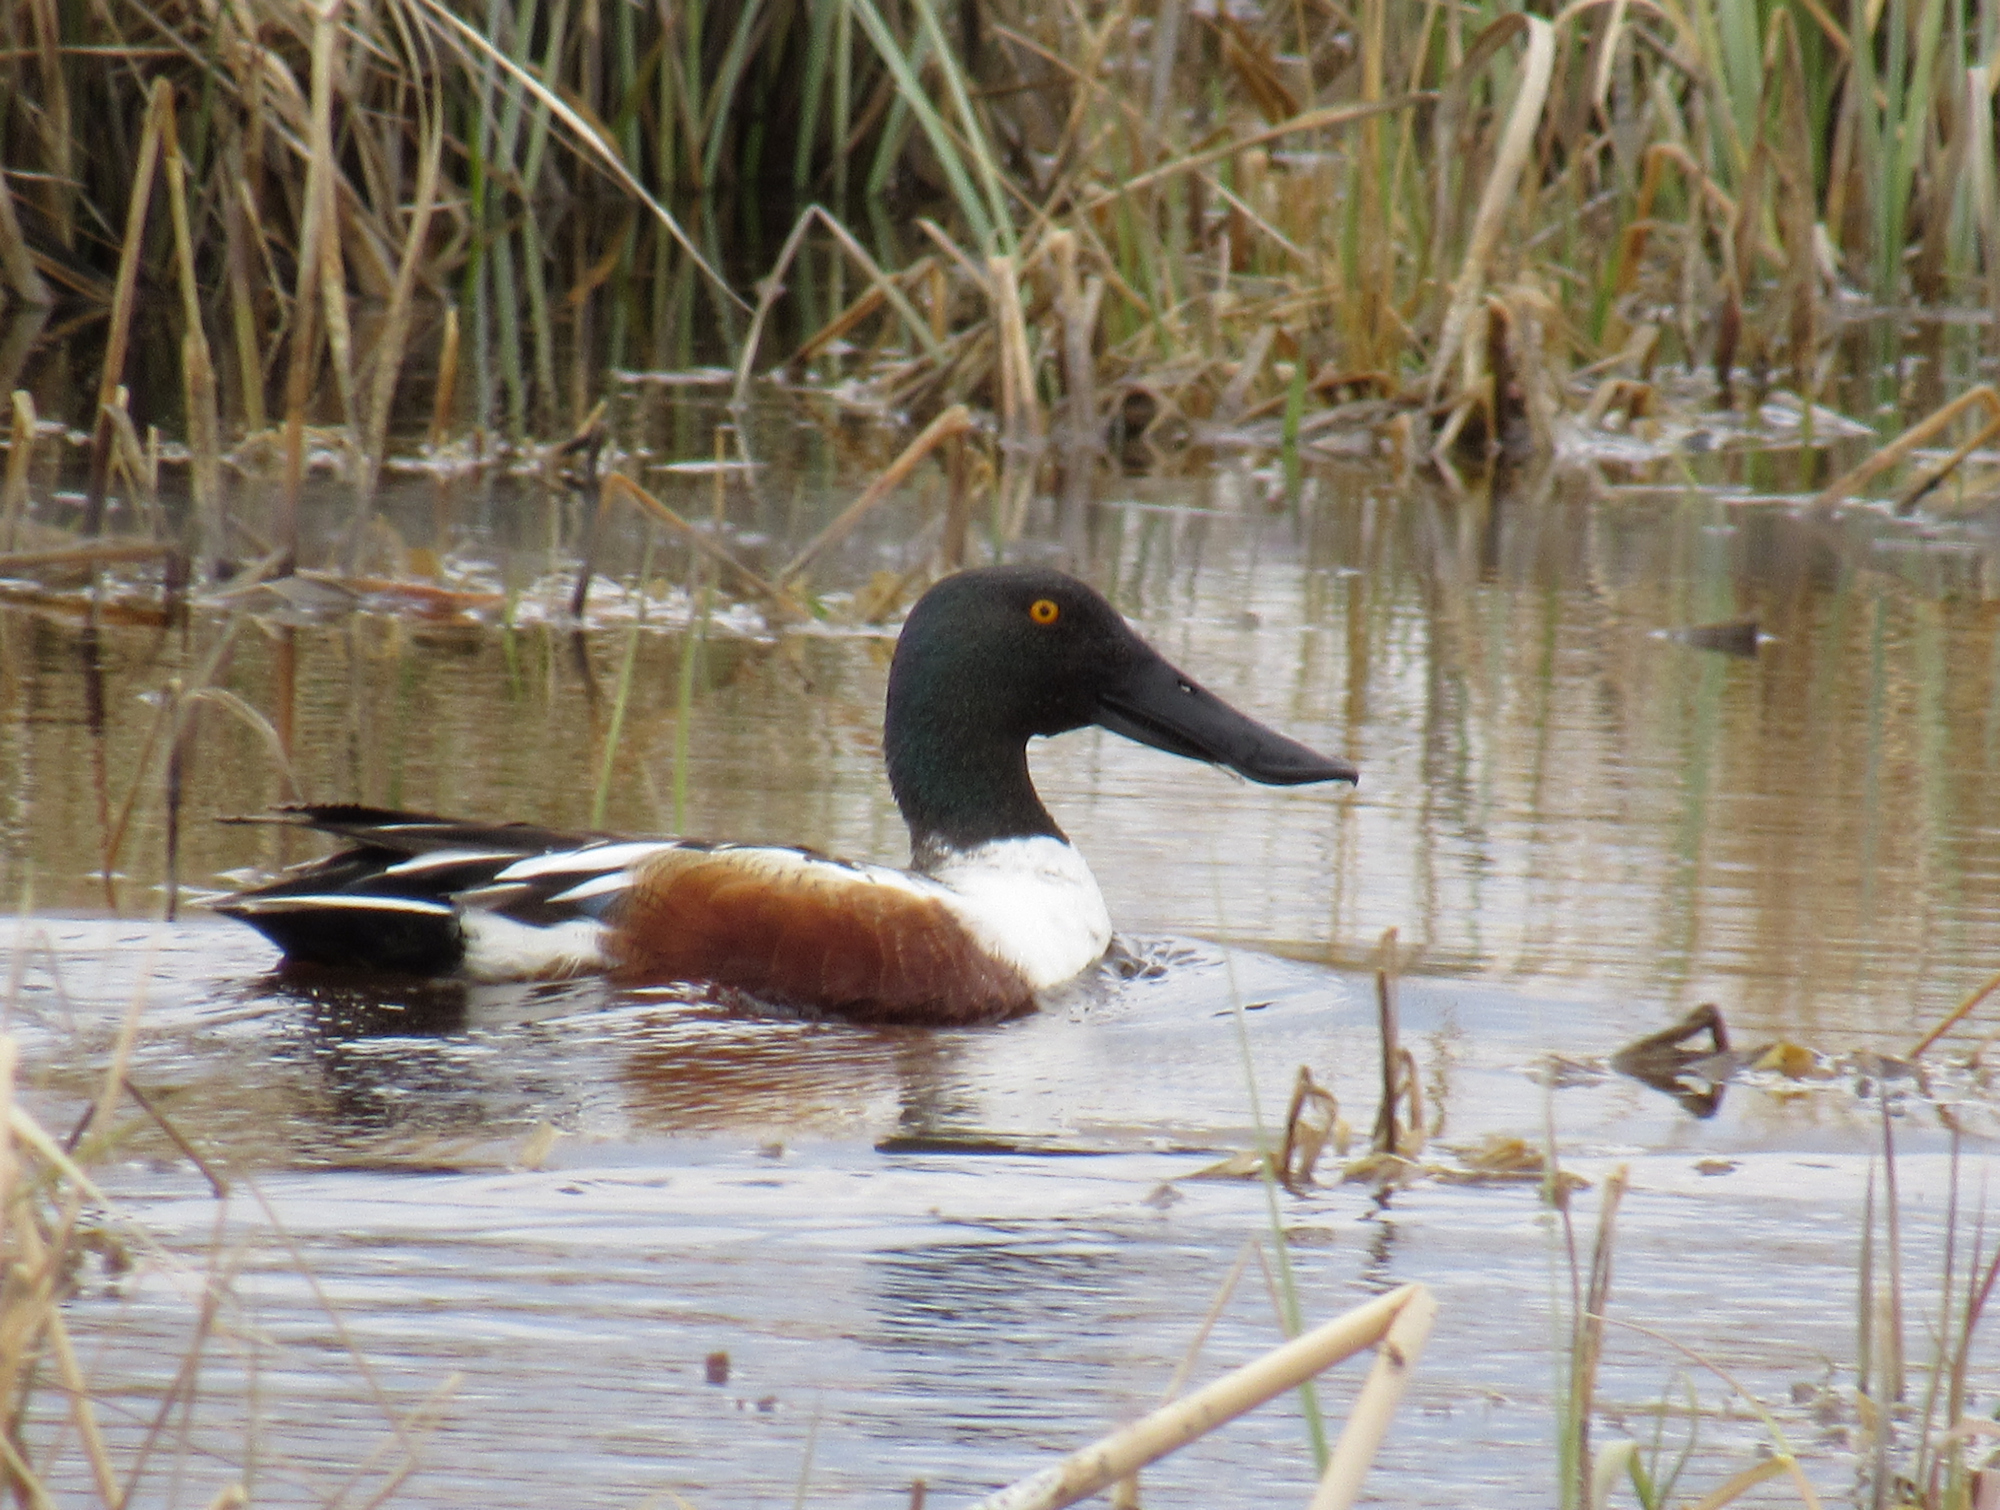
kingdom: Animalia
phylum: Chordata
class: Aves
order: Anseriformes
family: Anatidae
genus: Spatula
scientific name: Spatula clypeata
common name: Northern shoveler
